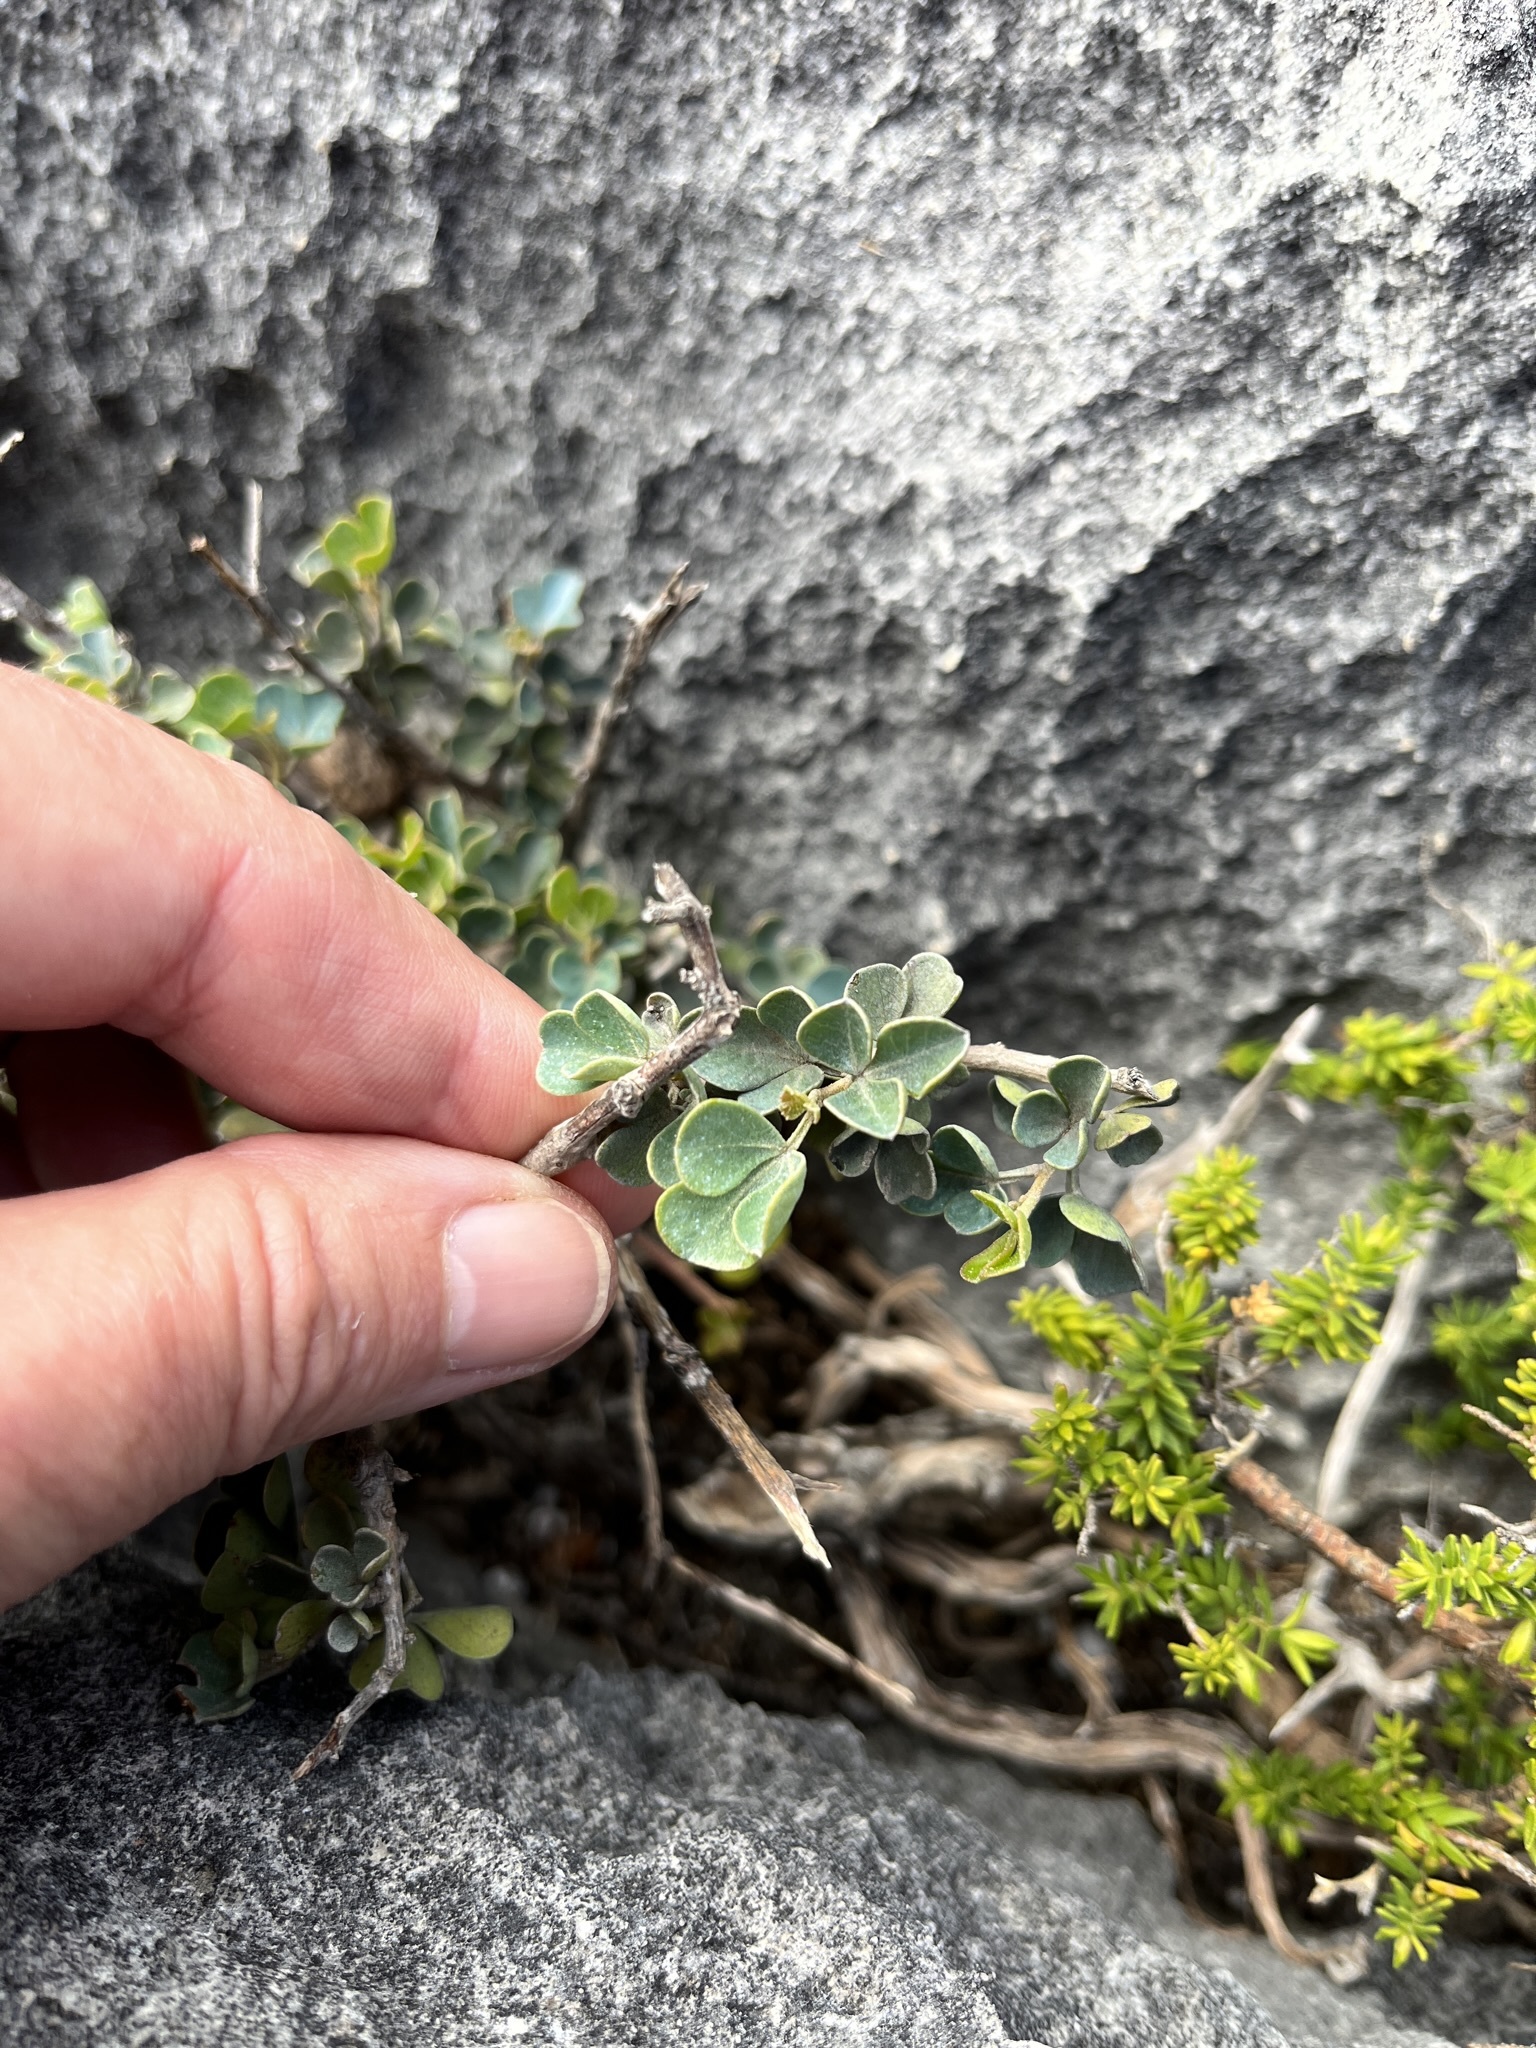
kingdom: Plantae
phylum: Tracheophyta
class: Magnoliopsida
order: Sapindales
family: Anacardiaceae
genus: Searsia
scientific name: Searsia glauca
